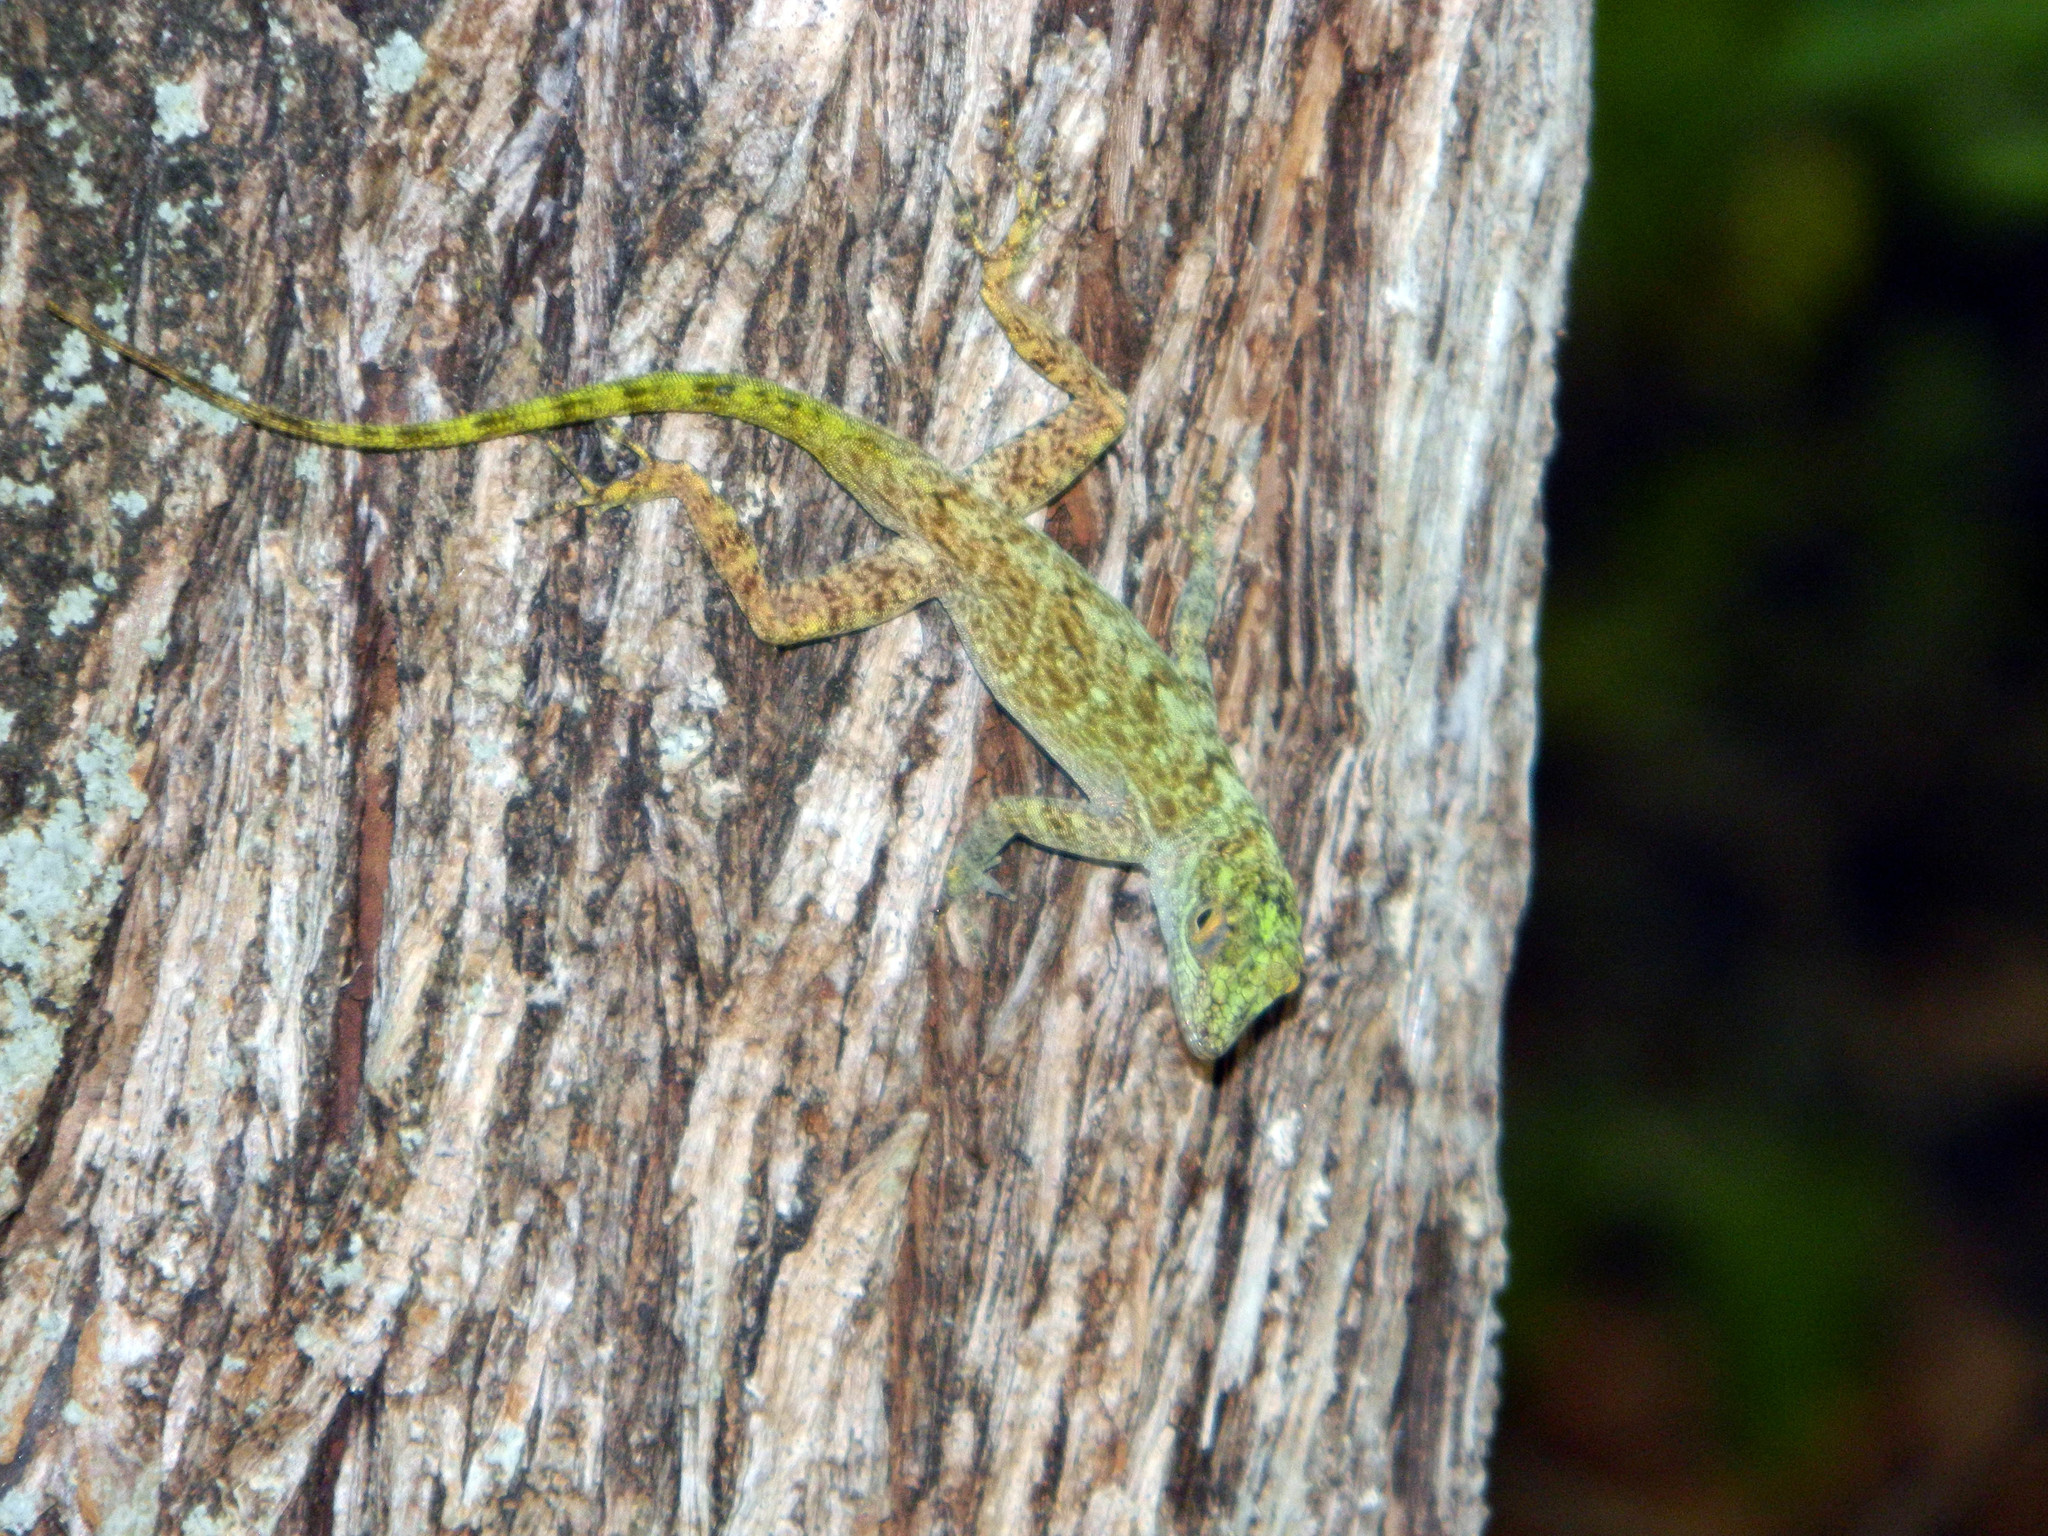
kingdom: Animalia
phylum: Chordata
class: Squamata
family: Dactyloidae
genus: Anolis
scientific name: Anolis distichus
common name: Bark anole
